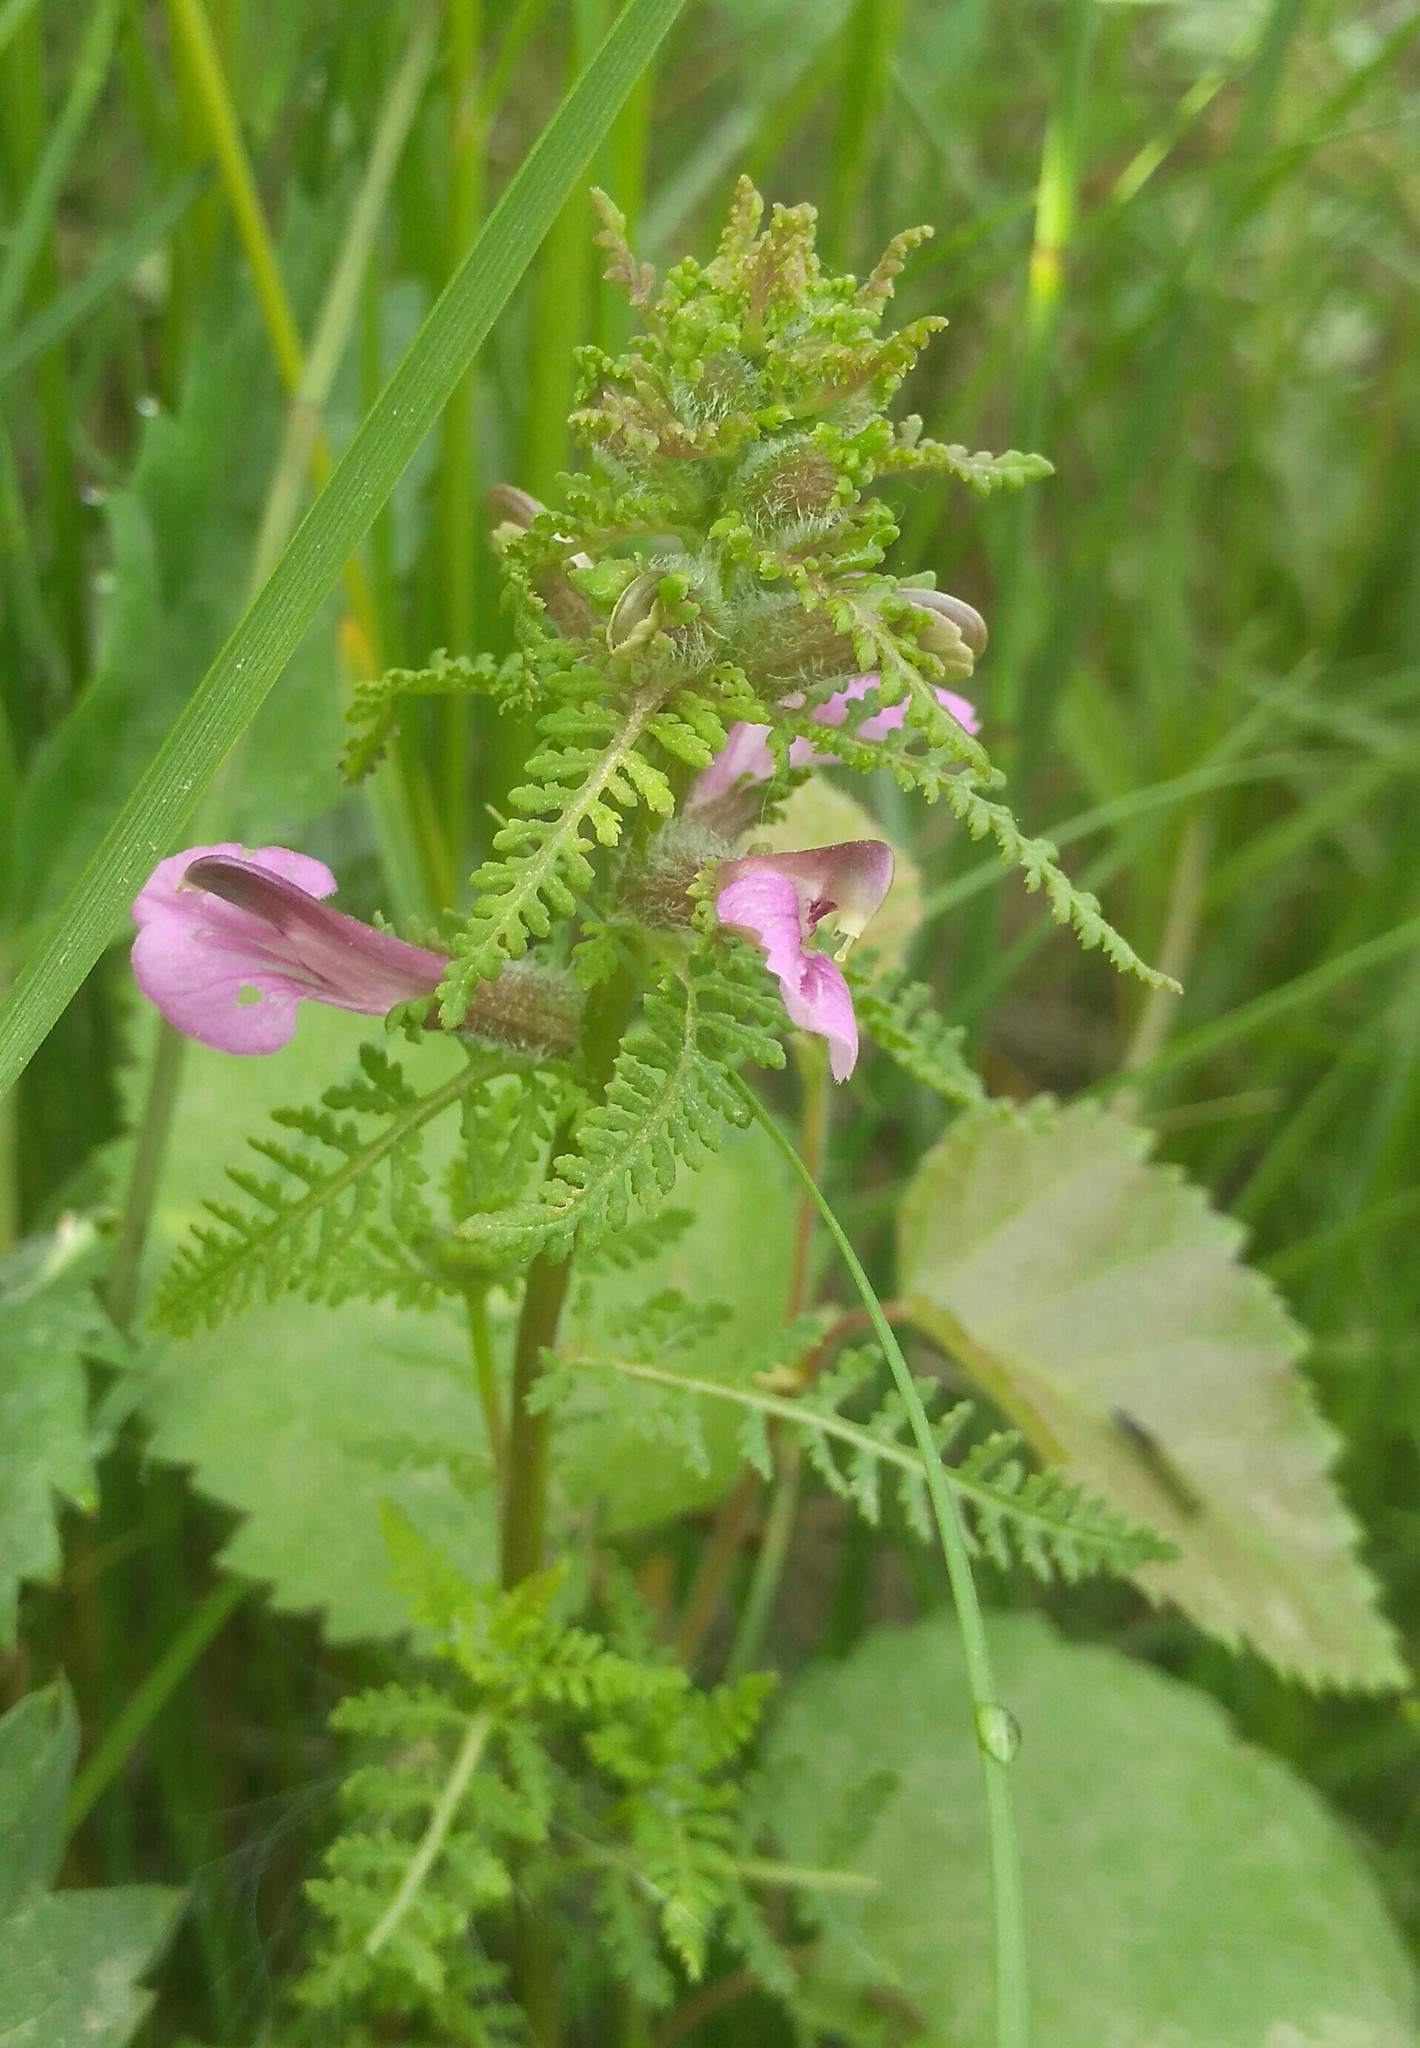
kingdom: Plantae
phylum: Tracheophyta
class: Magnoliopsida
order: Lamiales
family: Orobanchaceae
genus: Pedicularis
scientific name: Pedicularis karoi
